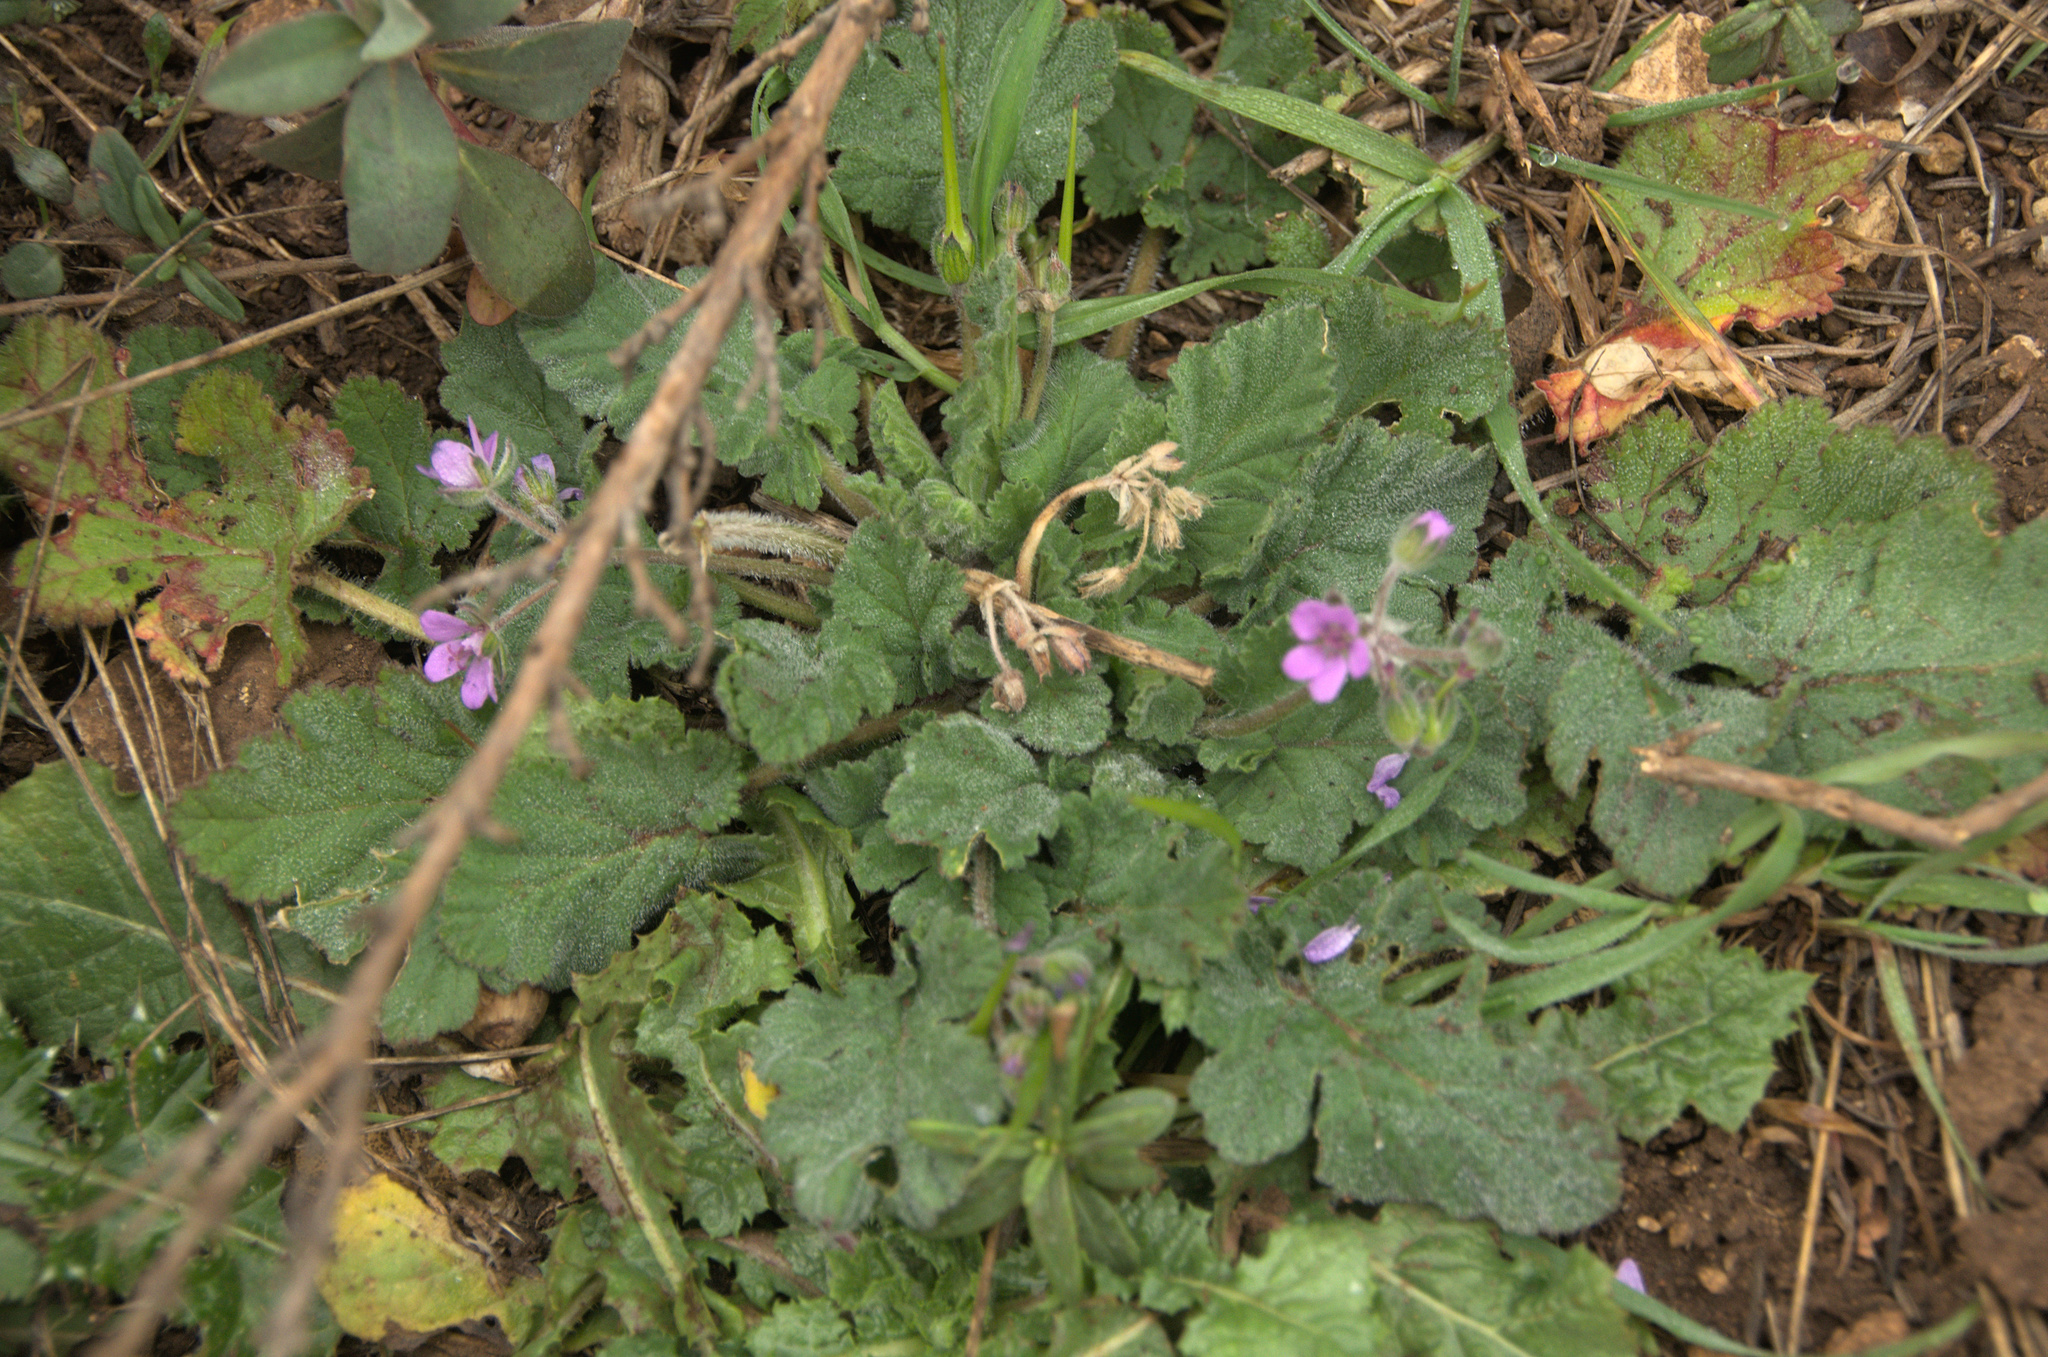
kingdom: Plantae
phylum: Tracheophyta
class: Magnoliopsida
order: Geraniales
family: Geraniaceae
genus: Erodium
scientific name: Erodium malacoides
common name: Soft stork's-bill
